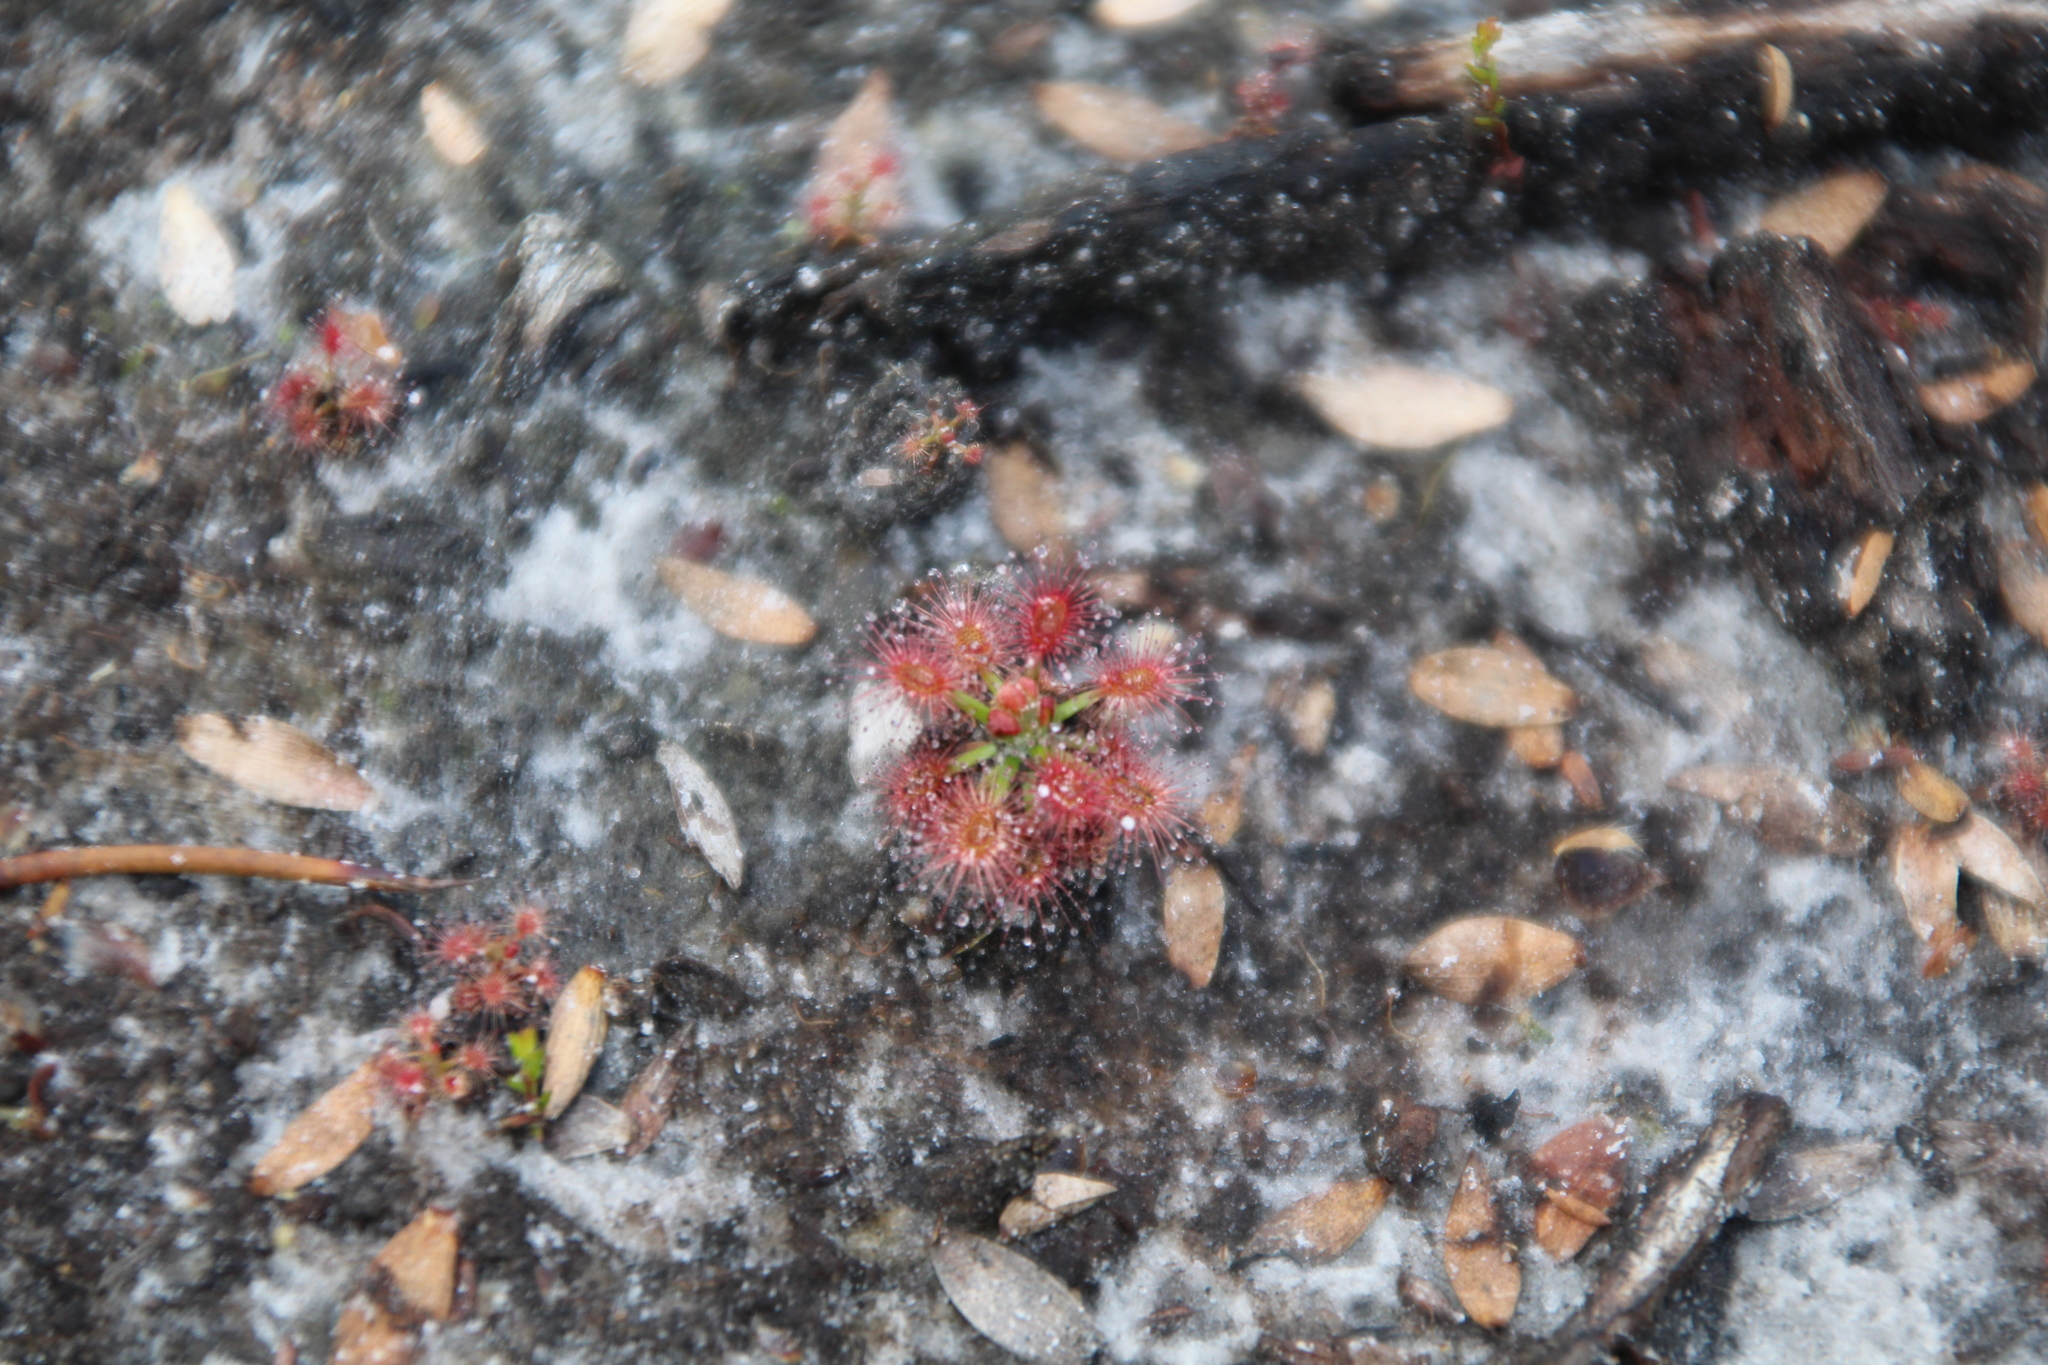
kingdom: Plantae
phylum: Tracheophyta
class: Magnoliopsida
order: Caryophyllales
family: Droseraceae
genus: Drosera
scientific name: Drosera paleacea
